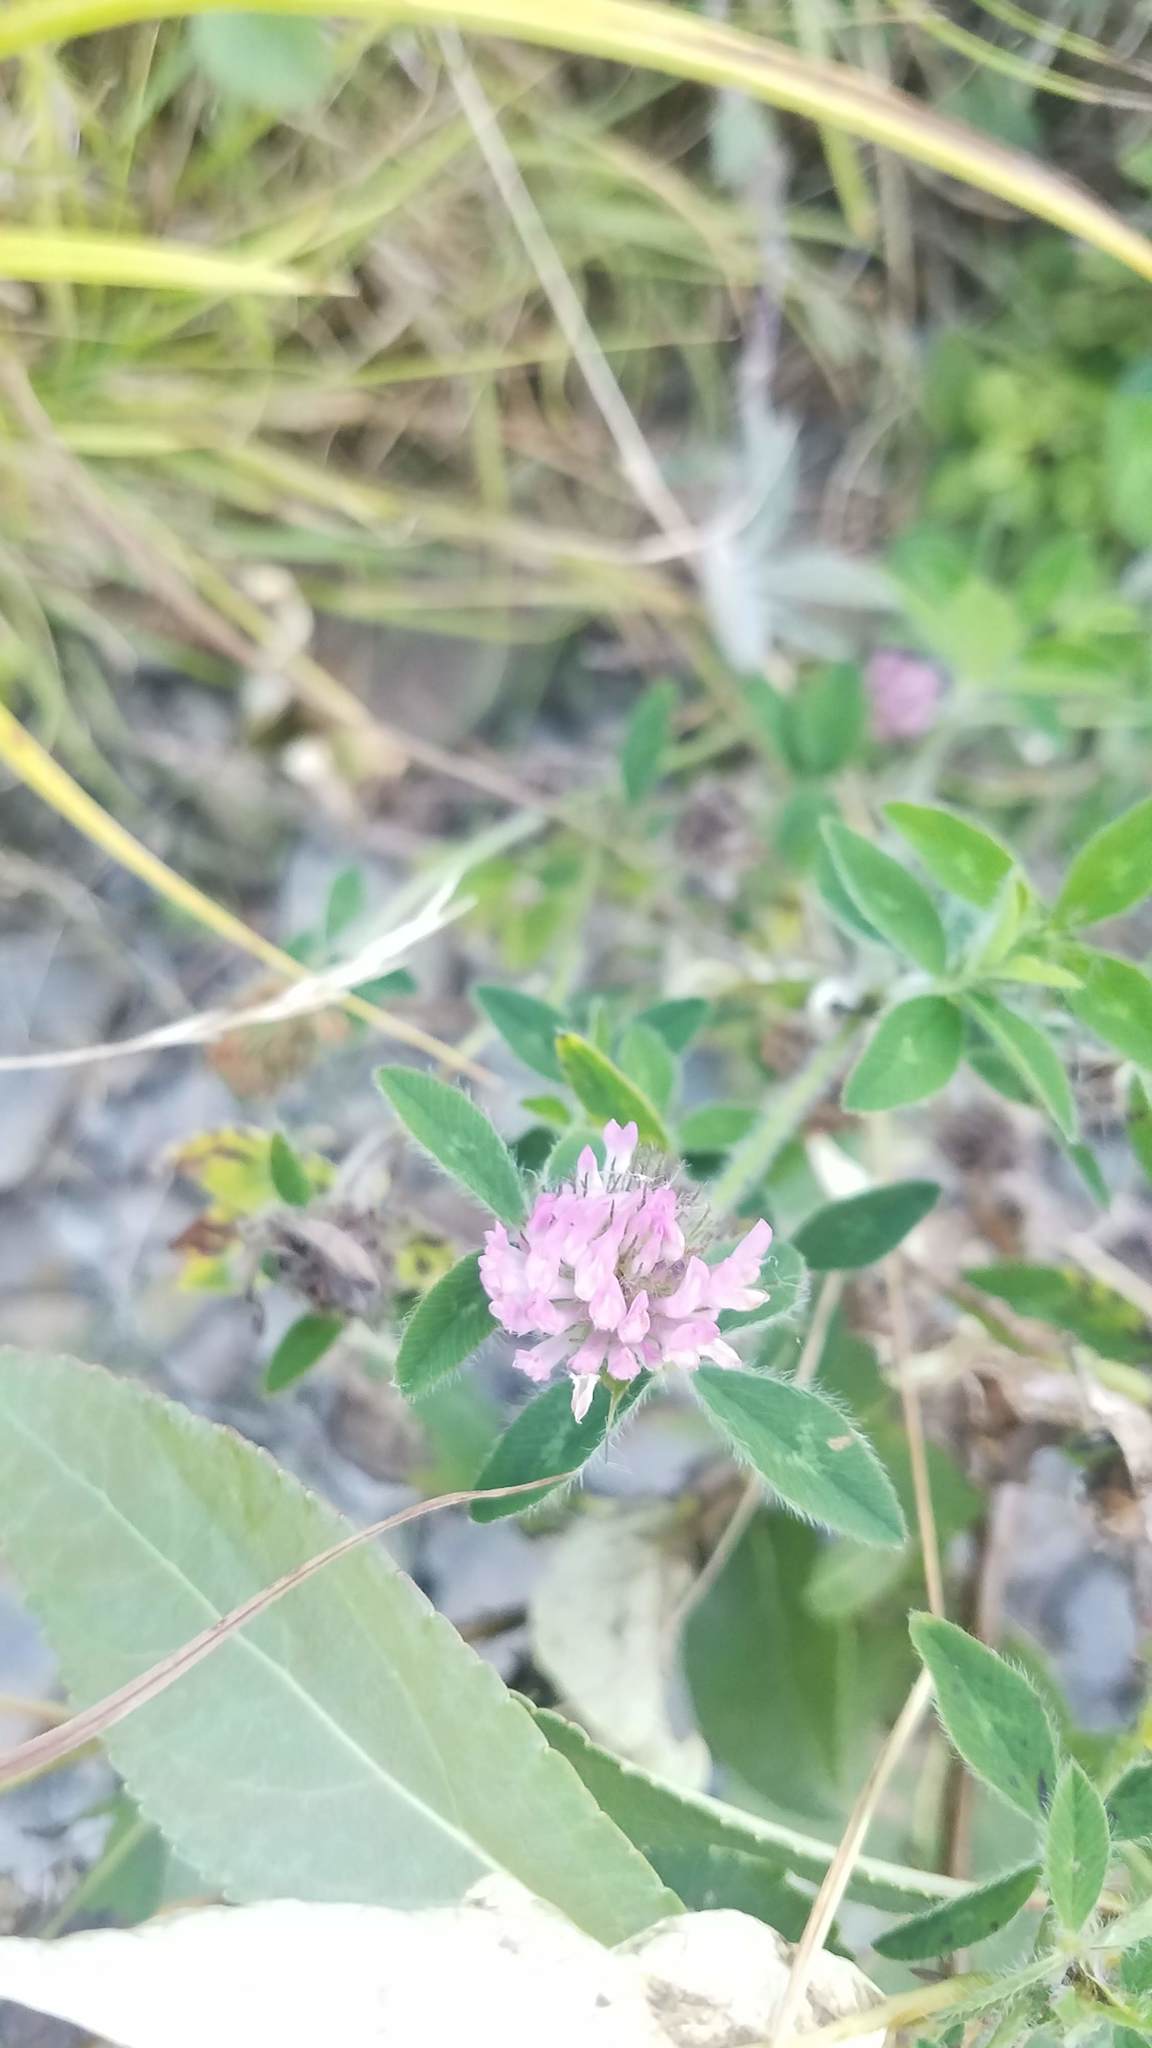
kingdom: Plantae
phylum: Tracheophyta
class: Magnoliopsida
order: Fabales
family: Fabaceae
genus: Trifolium
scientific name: Trifolium pratense
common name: Red clover
